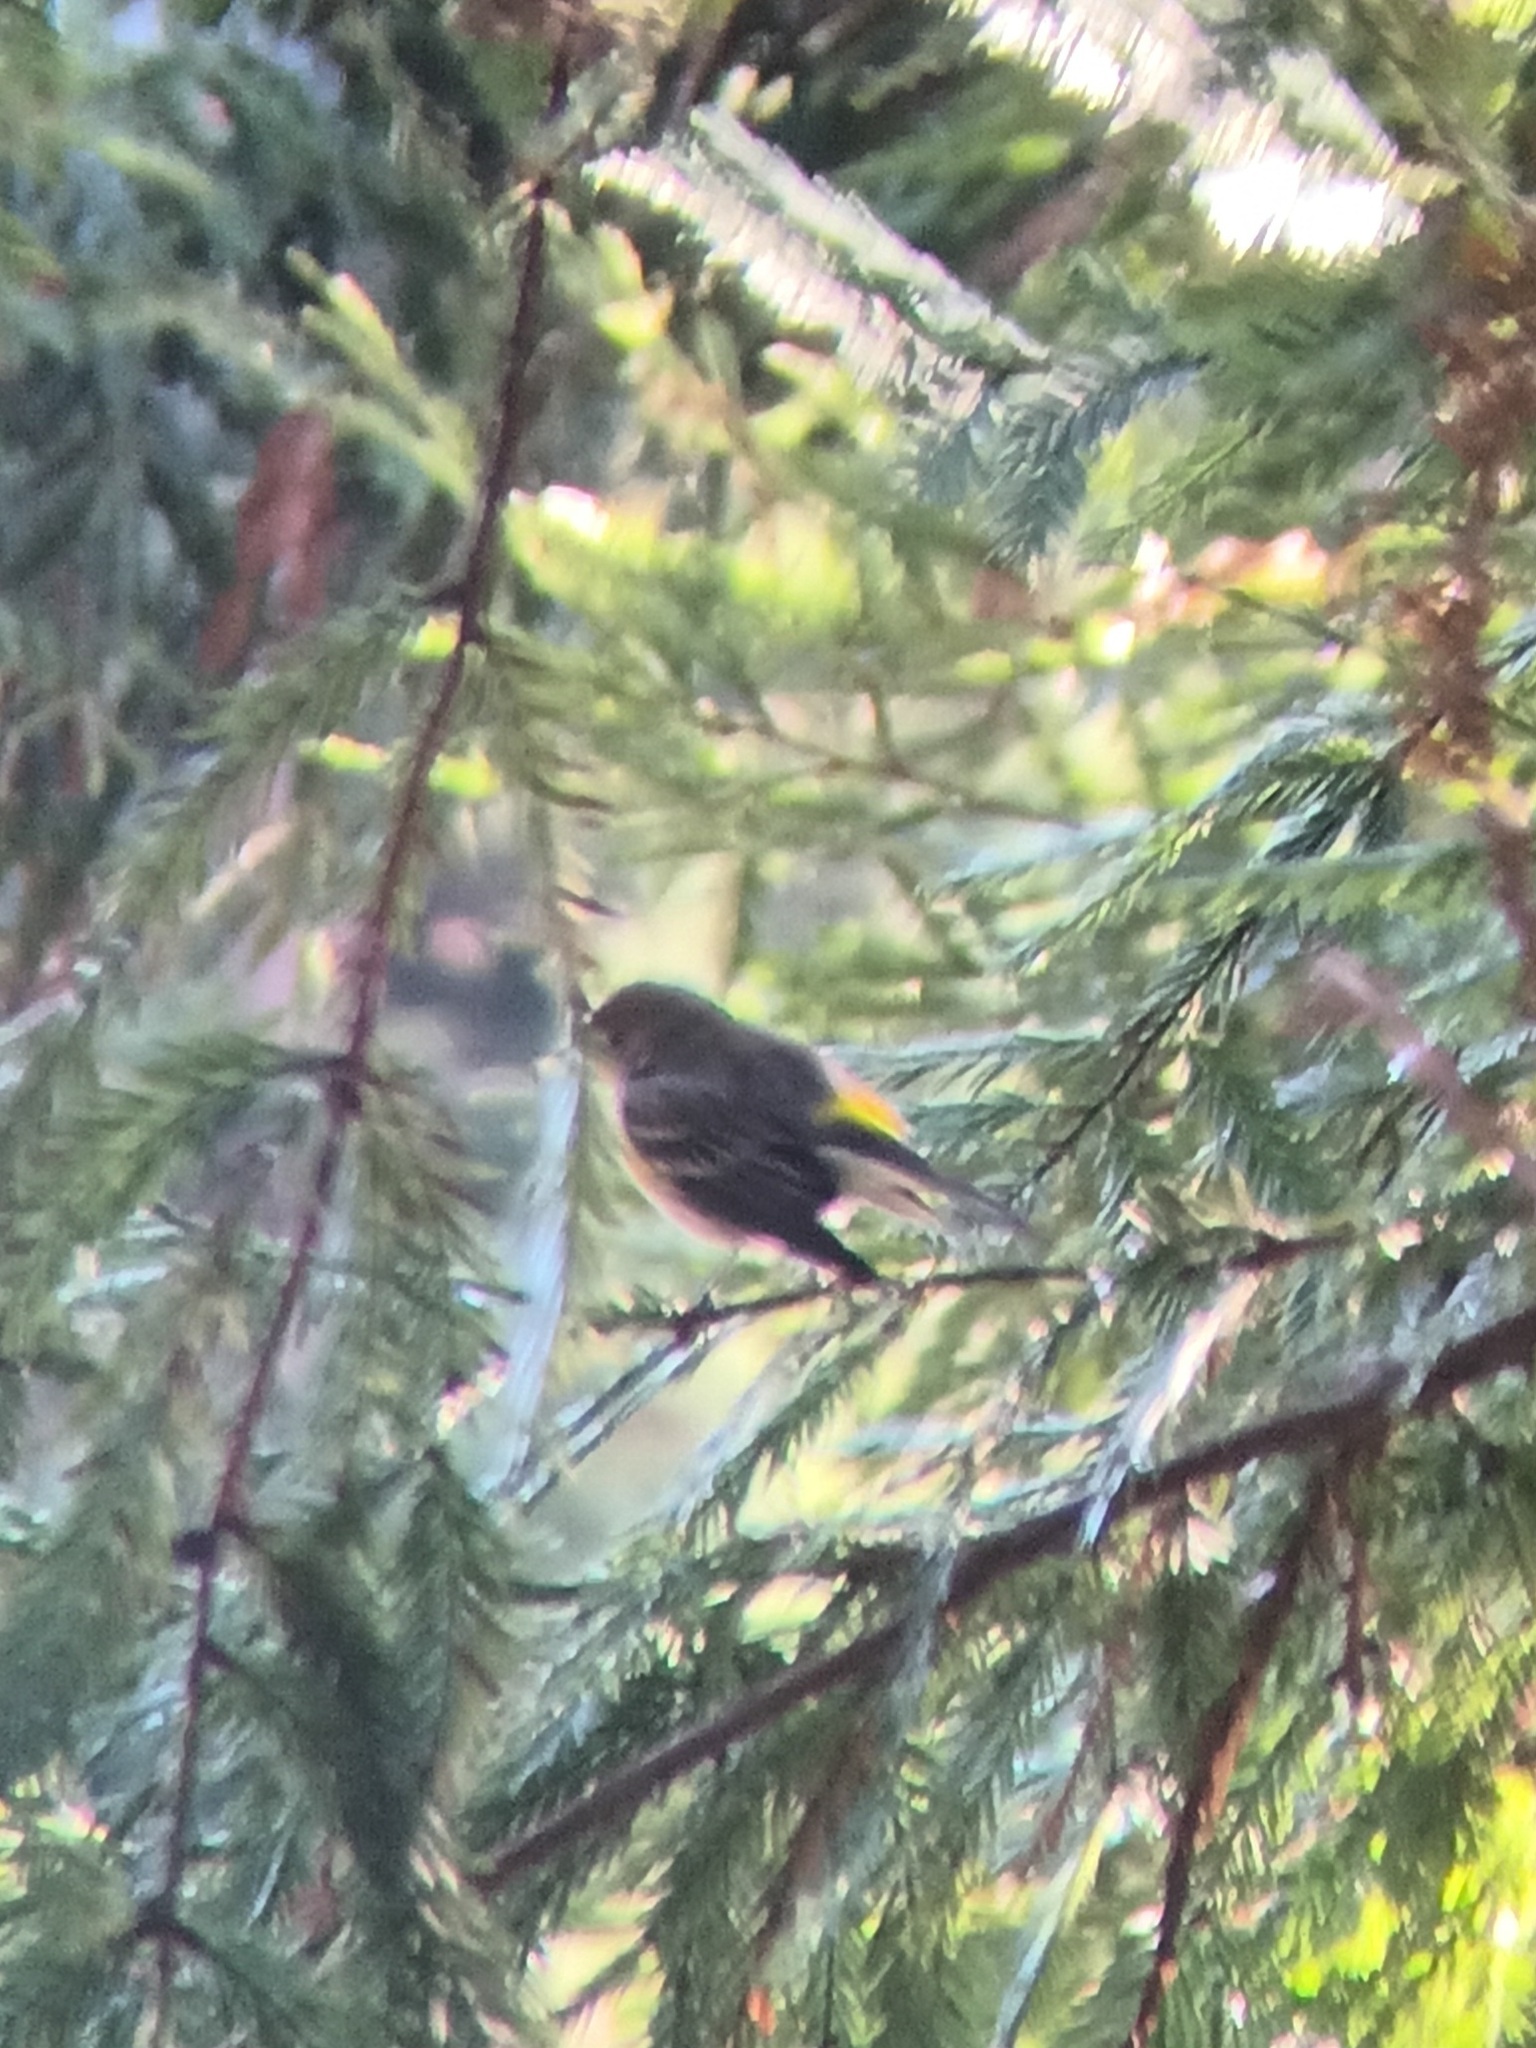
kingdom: Animalia
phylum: Chordata
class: Aves
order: Passeriformes
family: Parulidae
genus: Setophaga
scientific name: Setophaga coronata
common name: Myrtle warbler
